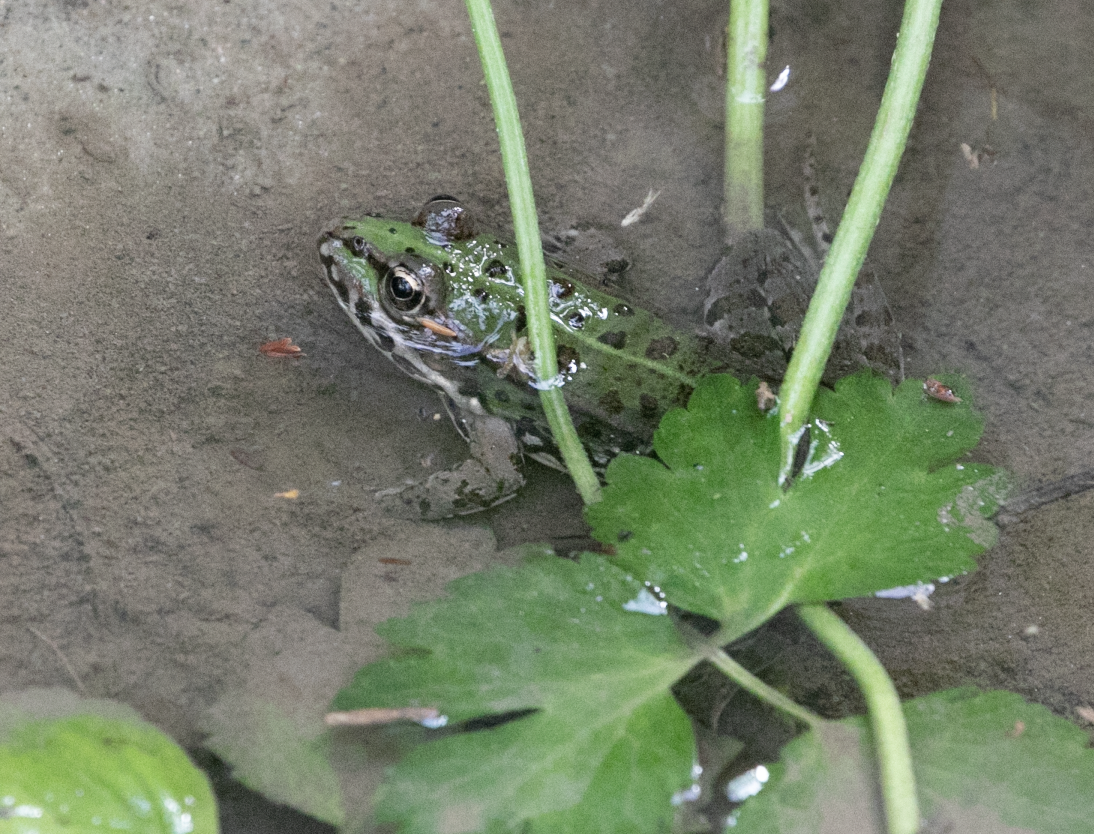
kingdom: Animalia
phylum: Chordata
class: Amphibia
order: Anura
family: Ranidae
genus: Pelophylax
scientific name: Pelophylax
